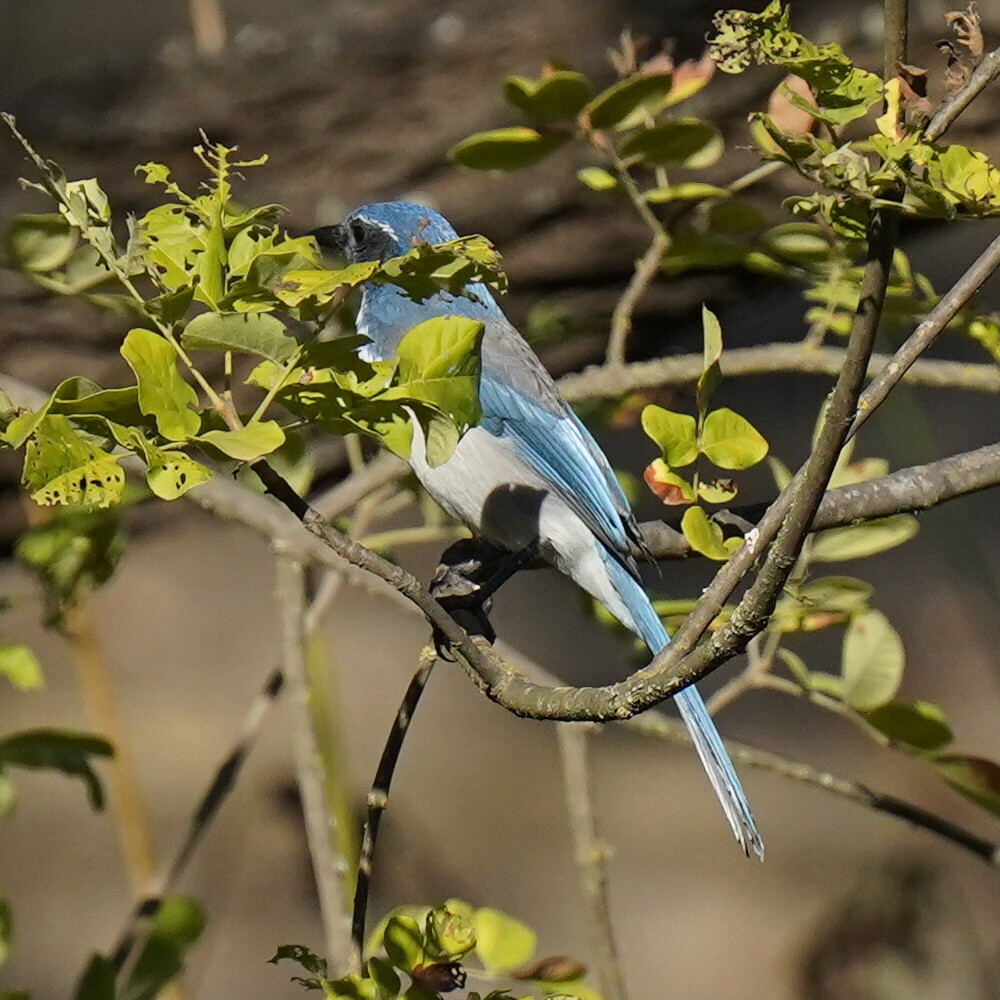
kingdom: Animalia
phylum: Chordata
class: Aves
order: Passeriformes
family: Corvidae
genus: Aphelocoma
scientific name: Aphelocoma californica
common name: California scrub-jay
